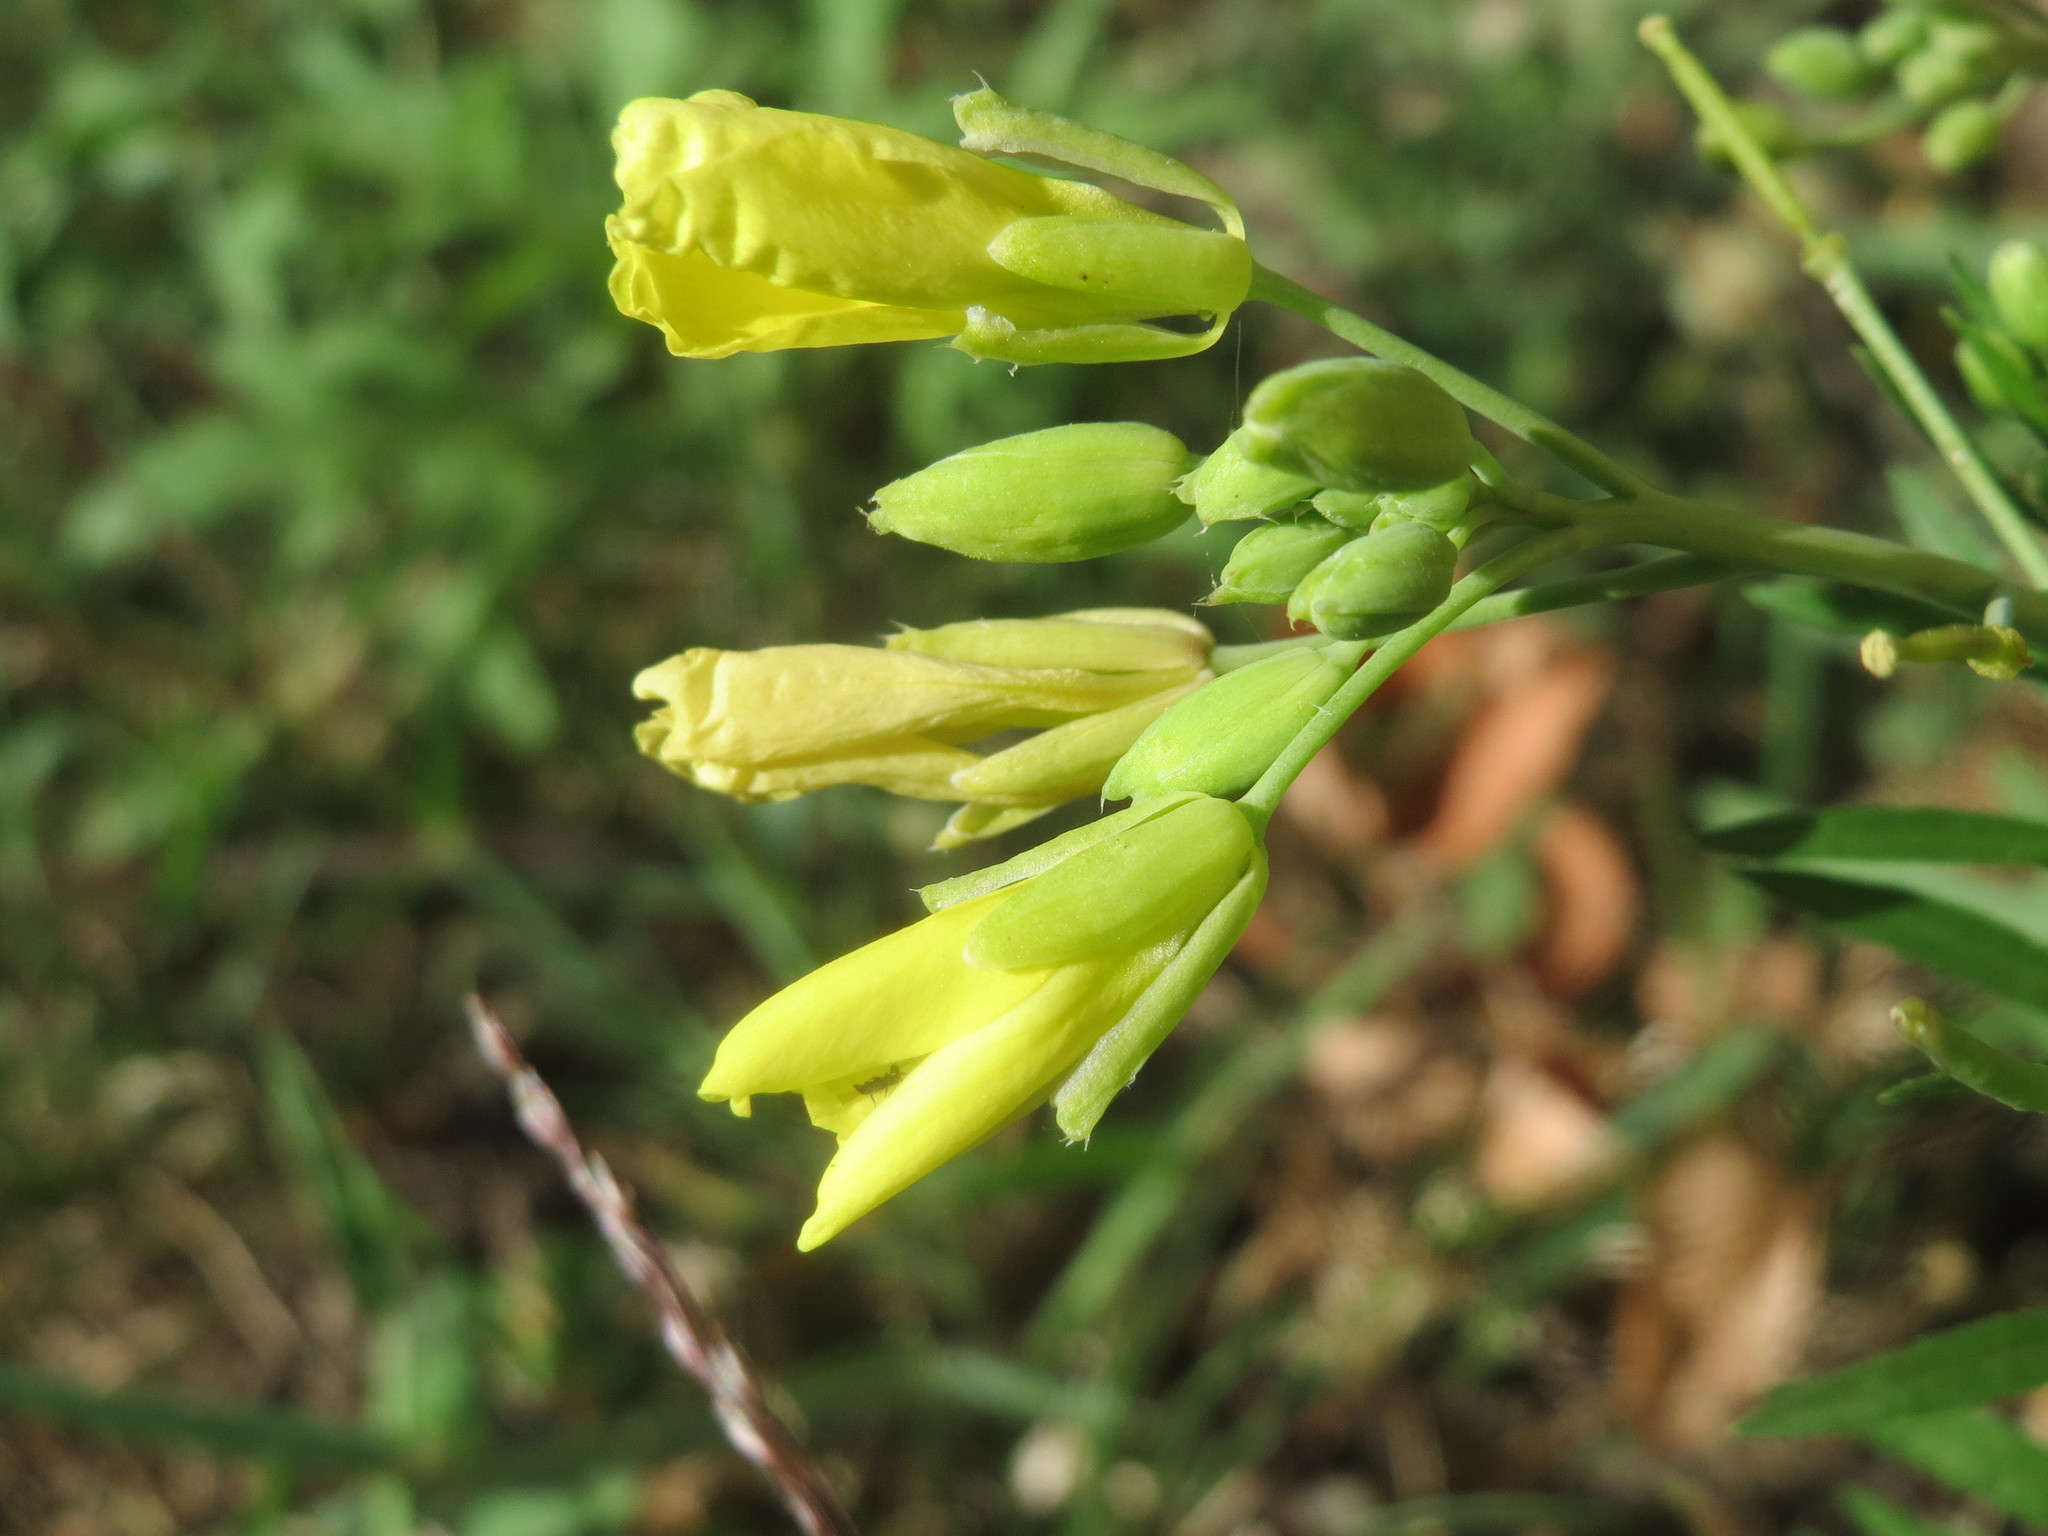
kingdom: Plantae
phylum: Tracheophyta
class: Magnoliopsida
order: Brassicales
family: Brassicaceae
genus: Diplotaxis
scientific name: Diplotaxis tenuifolia
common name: Perennial wall-rocket
